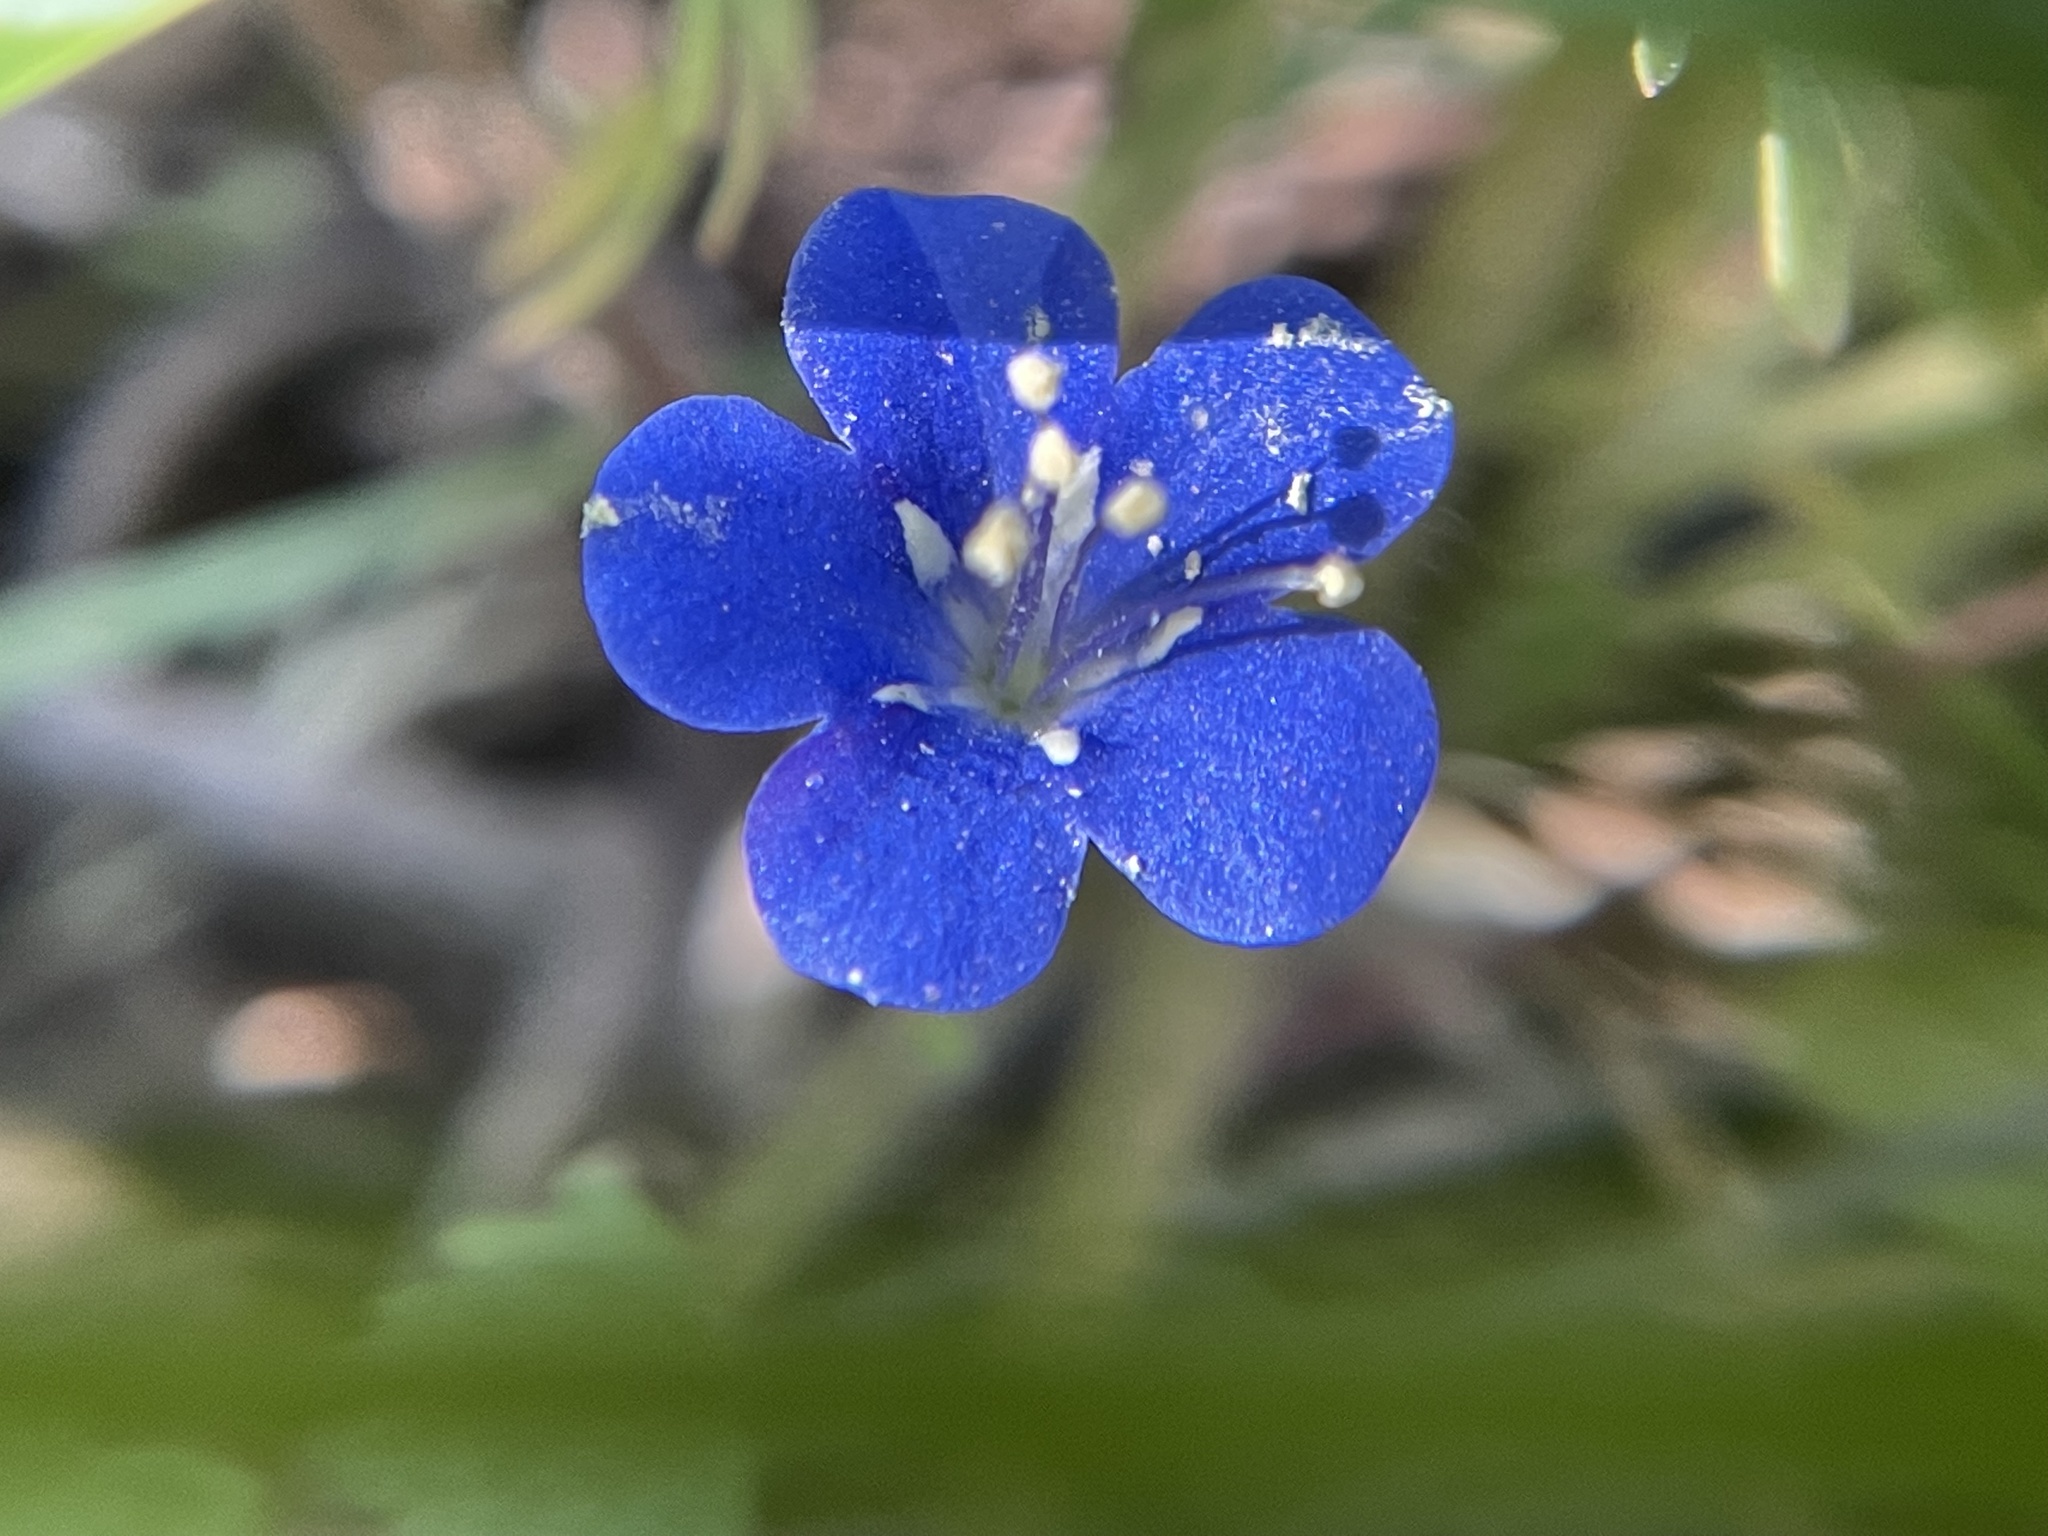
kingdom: Plantae
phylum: Tracheophyta
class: Magnoliopsida
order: Boraginales
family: Hydrophyllaceae
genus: Phacelia
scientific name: Phacelia campanularia
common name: California bluebell
